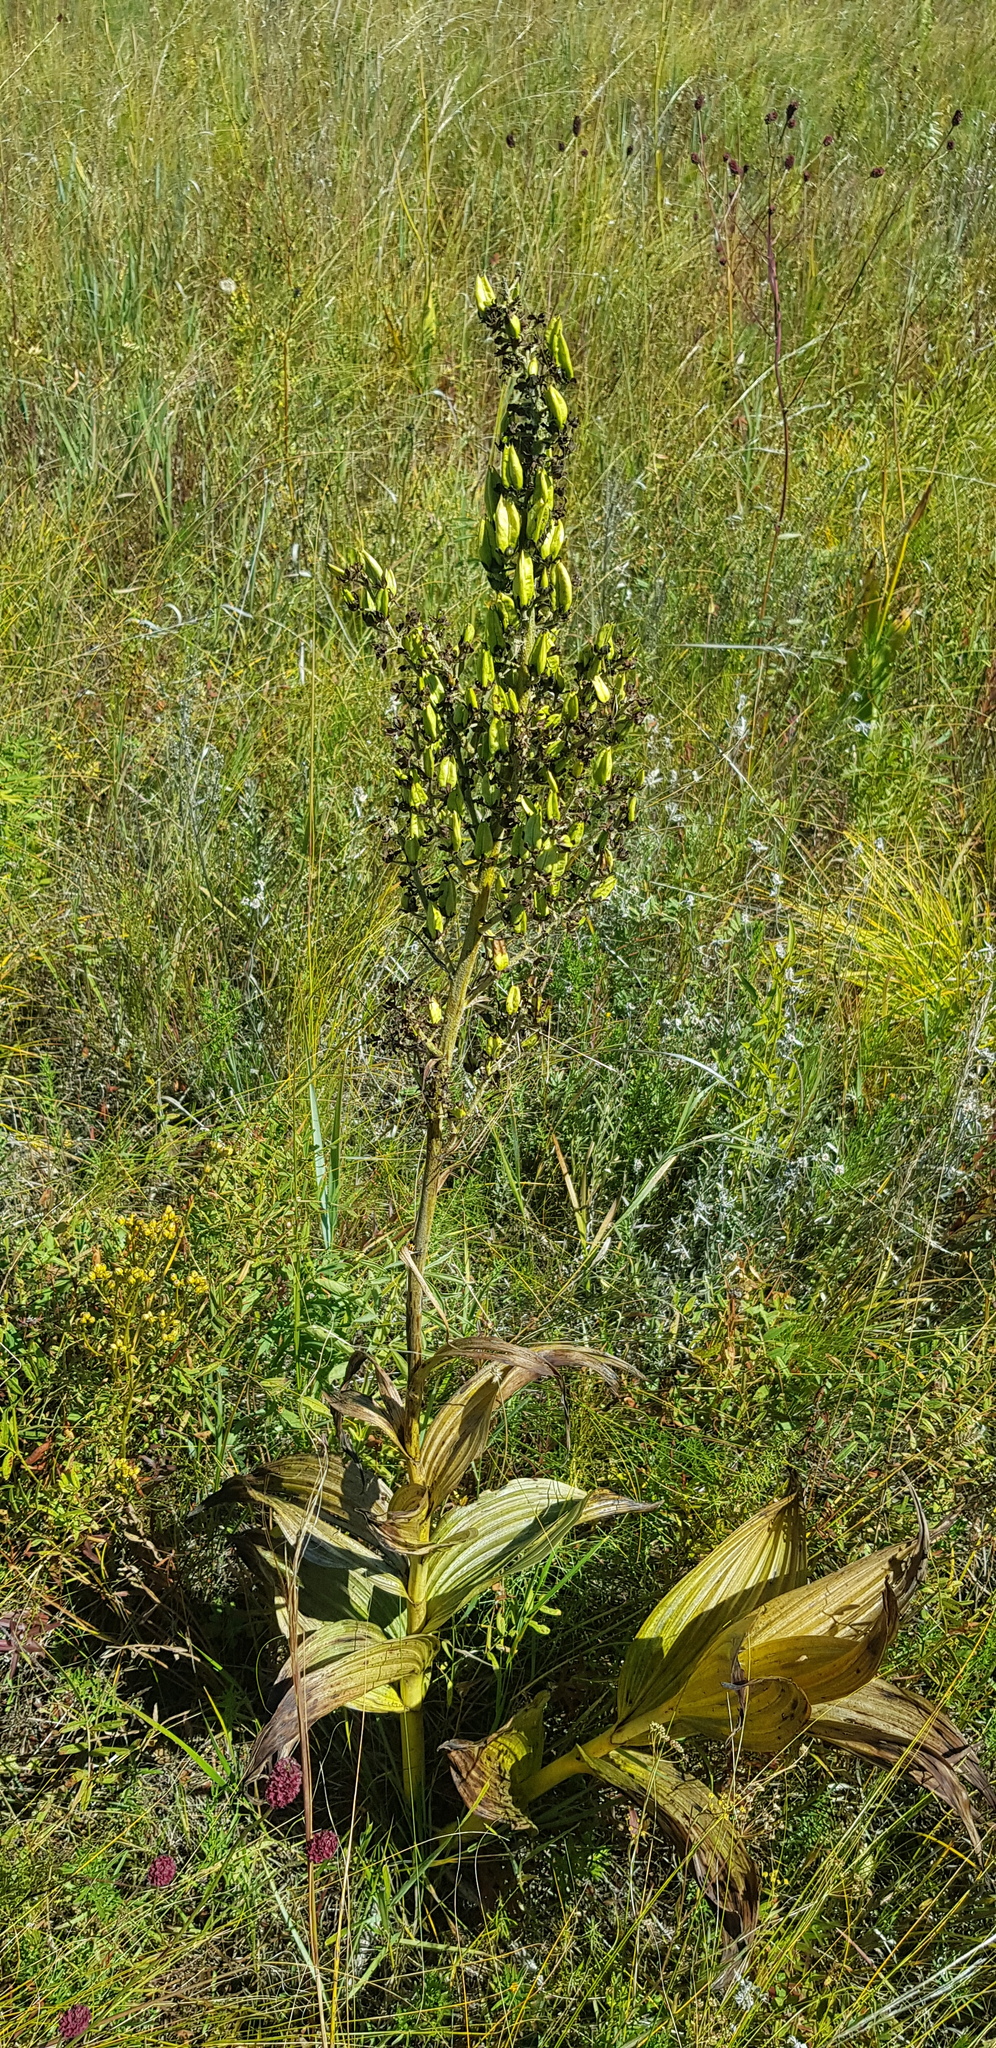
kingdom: Plantae
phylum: Tracheophyta
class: Liliopsida
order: Liliales
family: Melanthiaceae
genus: Veratrum
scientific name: Veratrum lobelianum
